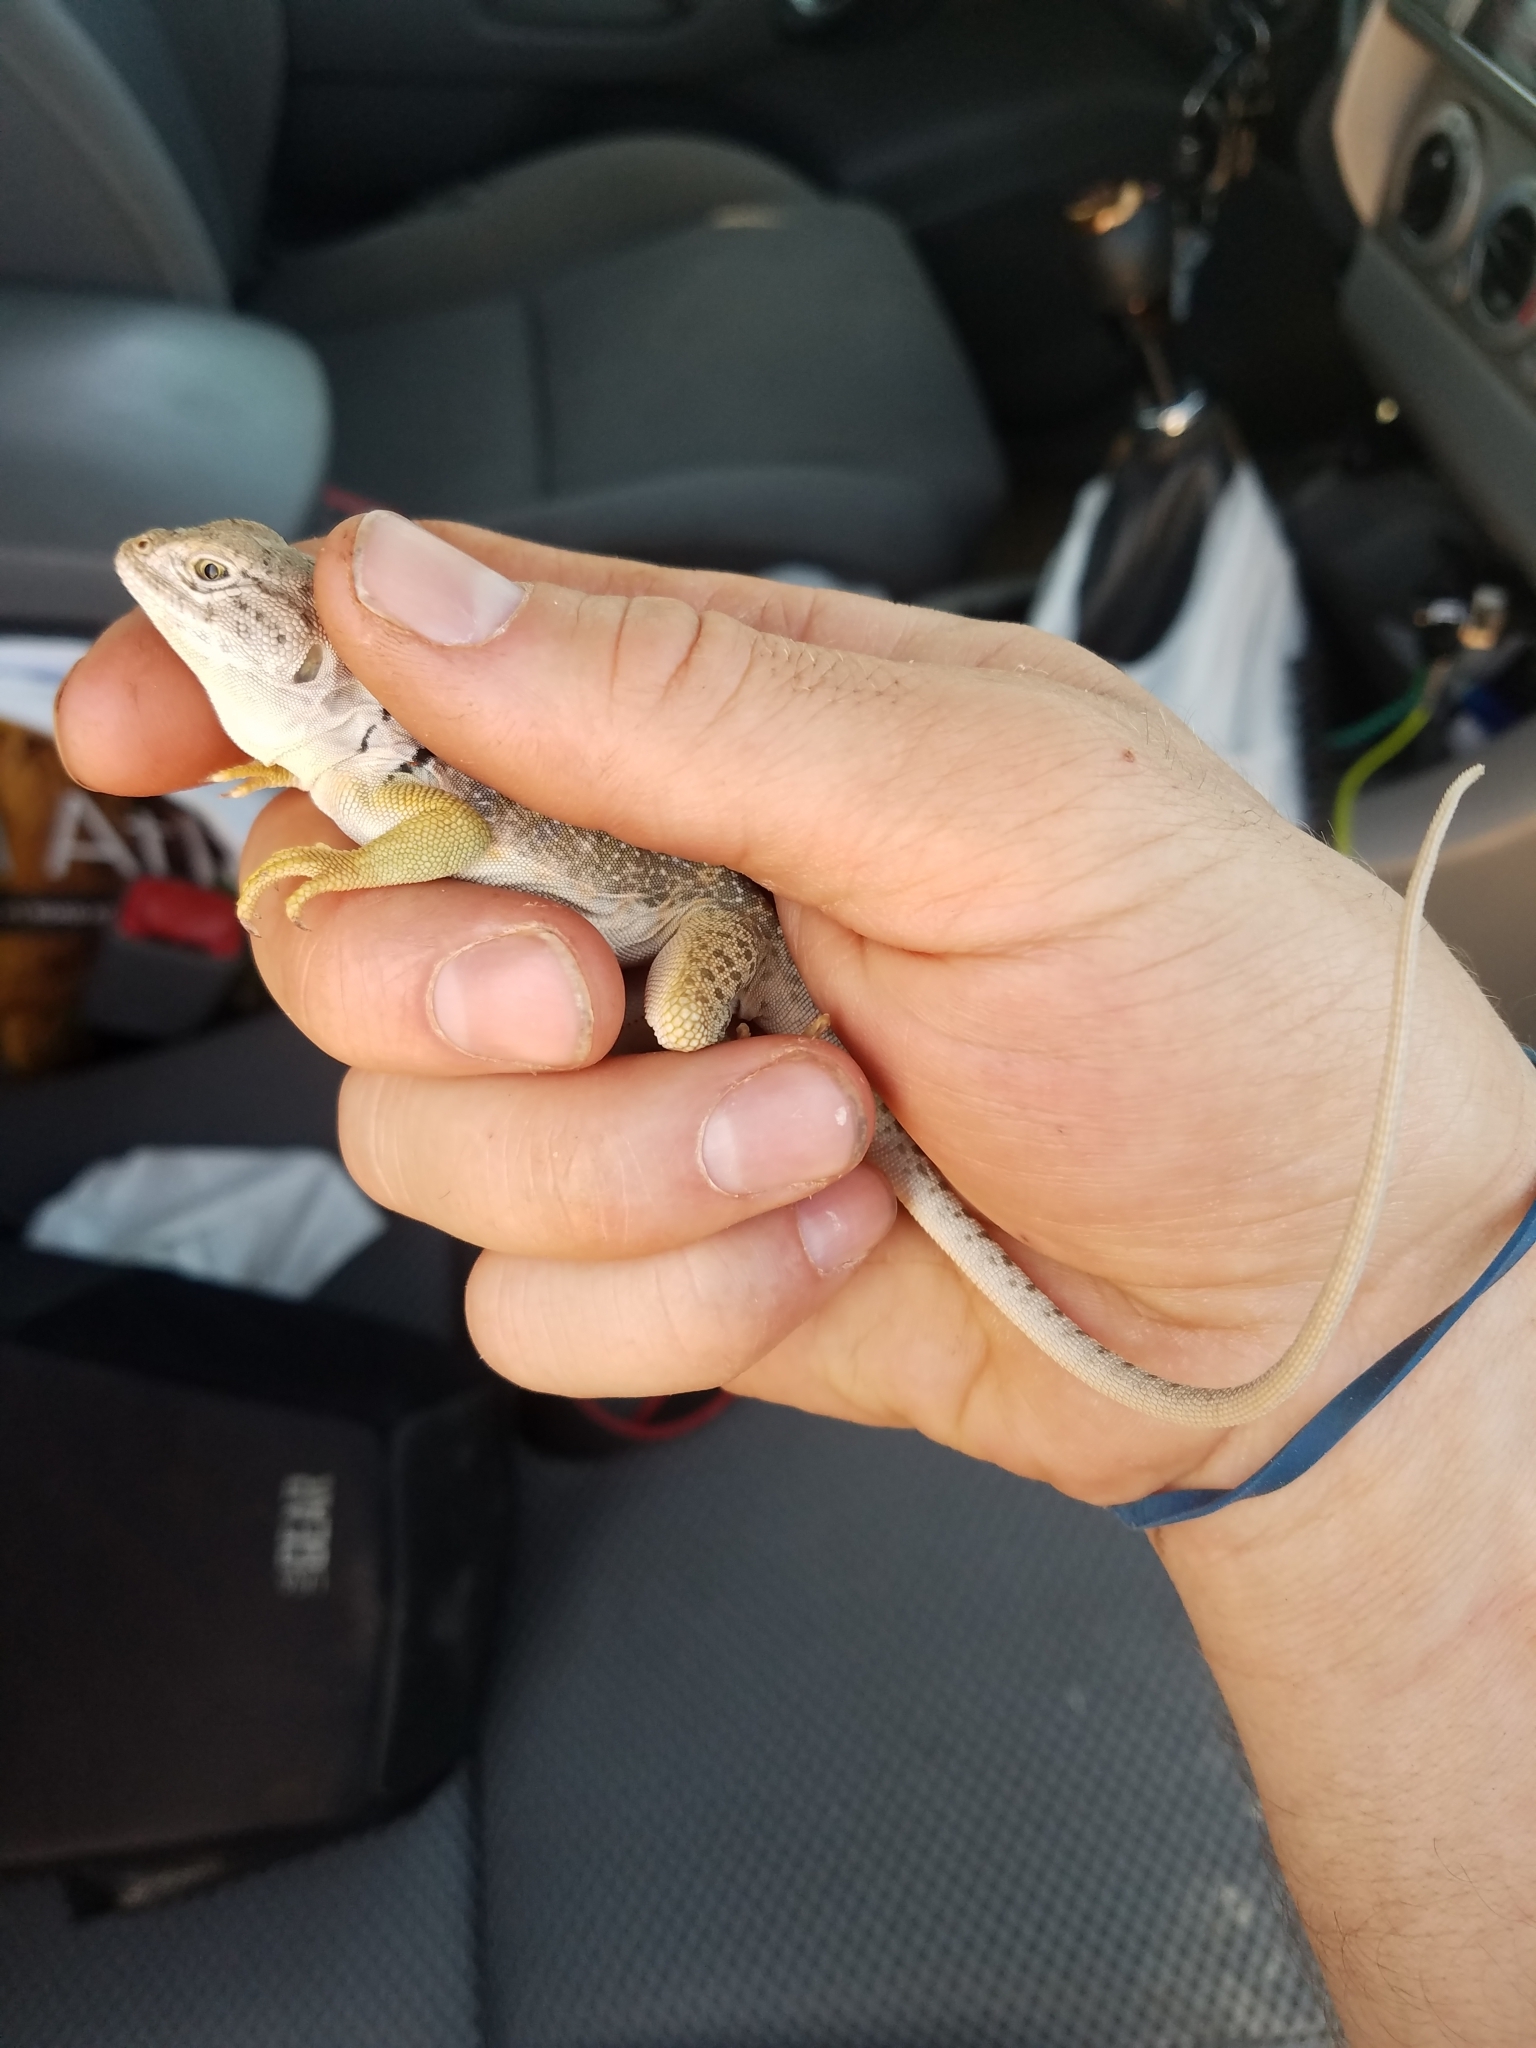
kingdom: Animalia
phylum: Chordata
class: Squamata
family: Crotaphytidae
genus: Crotaphytus
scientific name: Crotaphytus collaris
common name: Collared lizard
